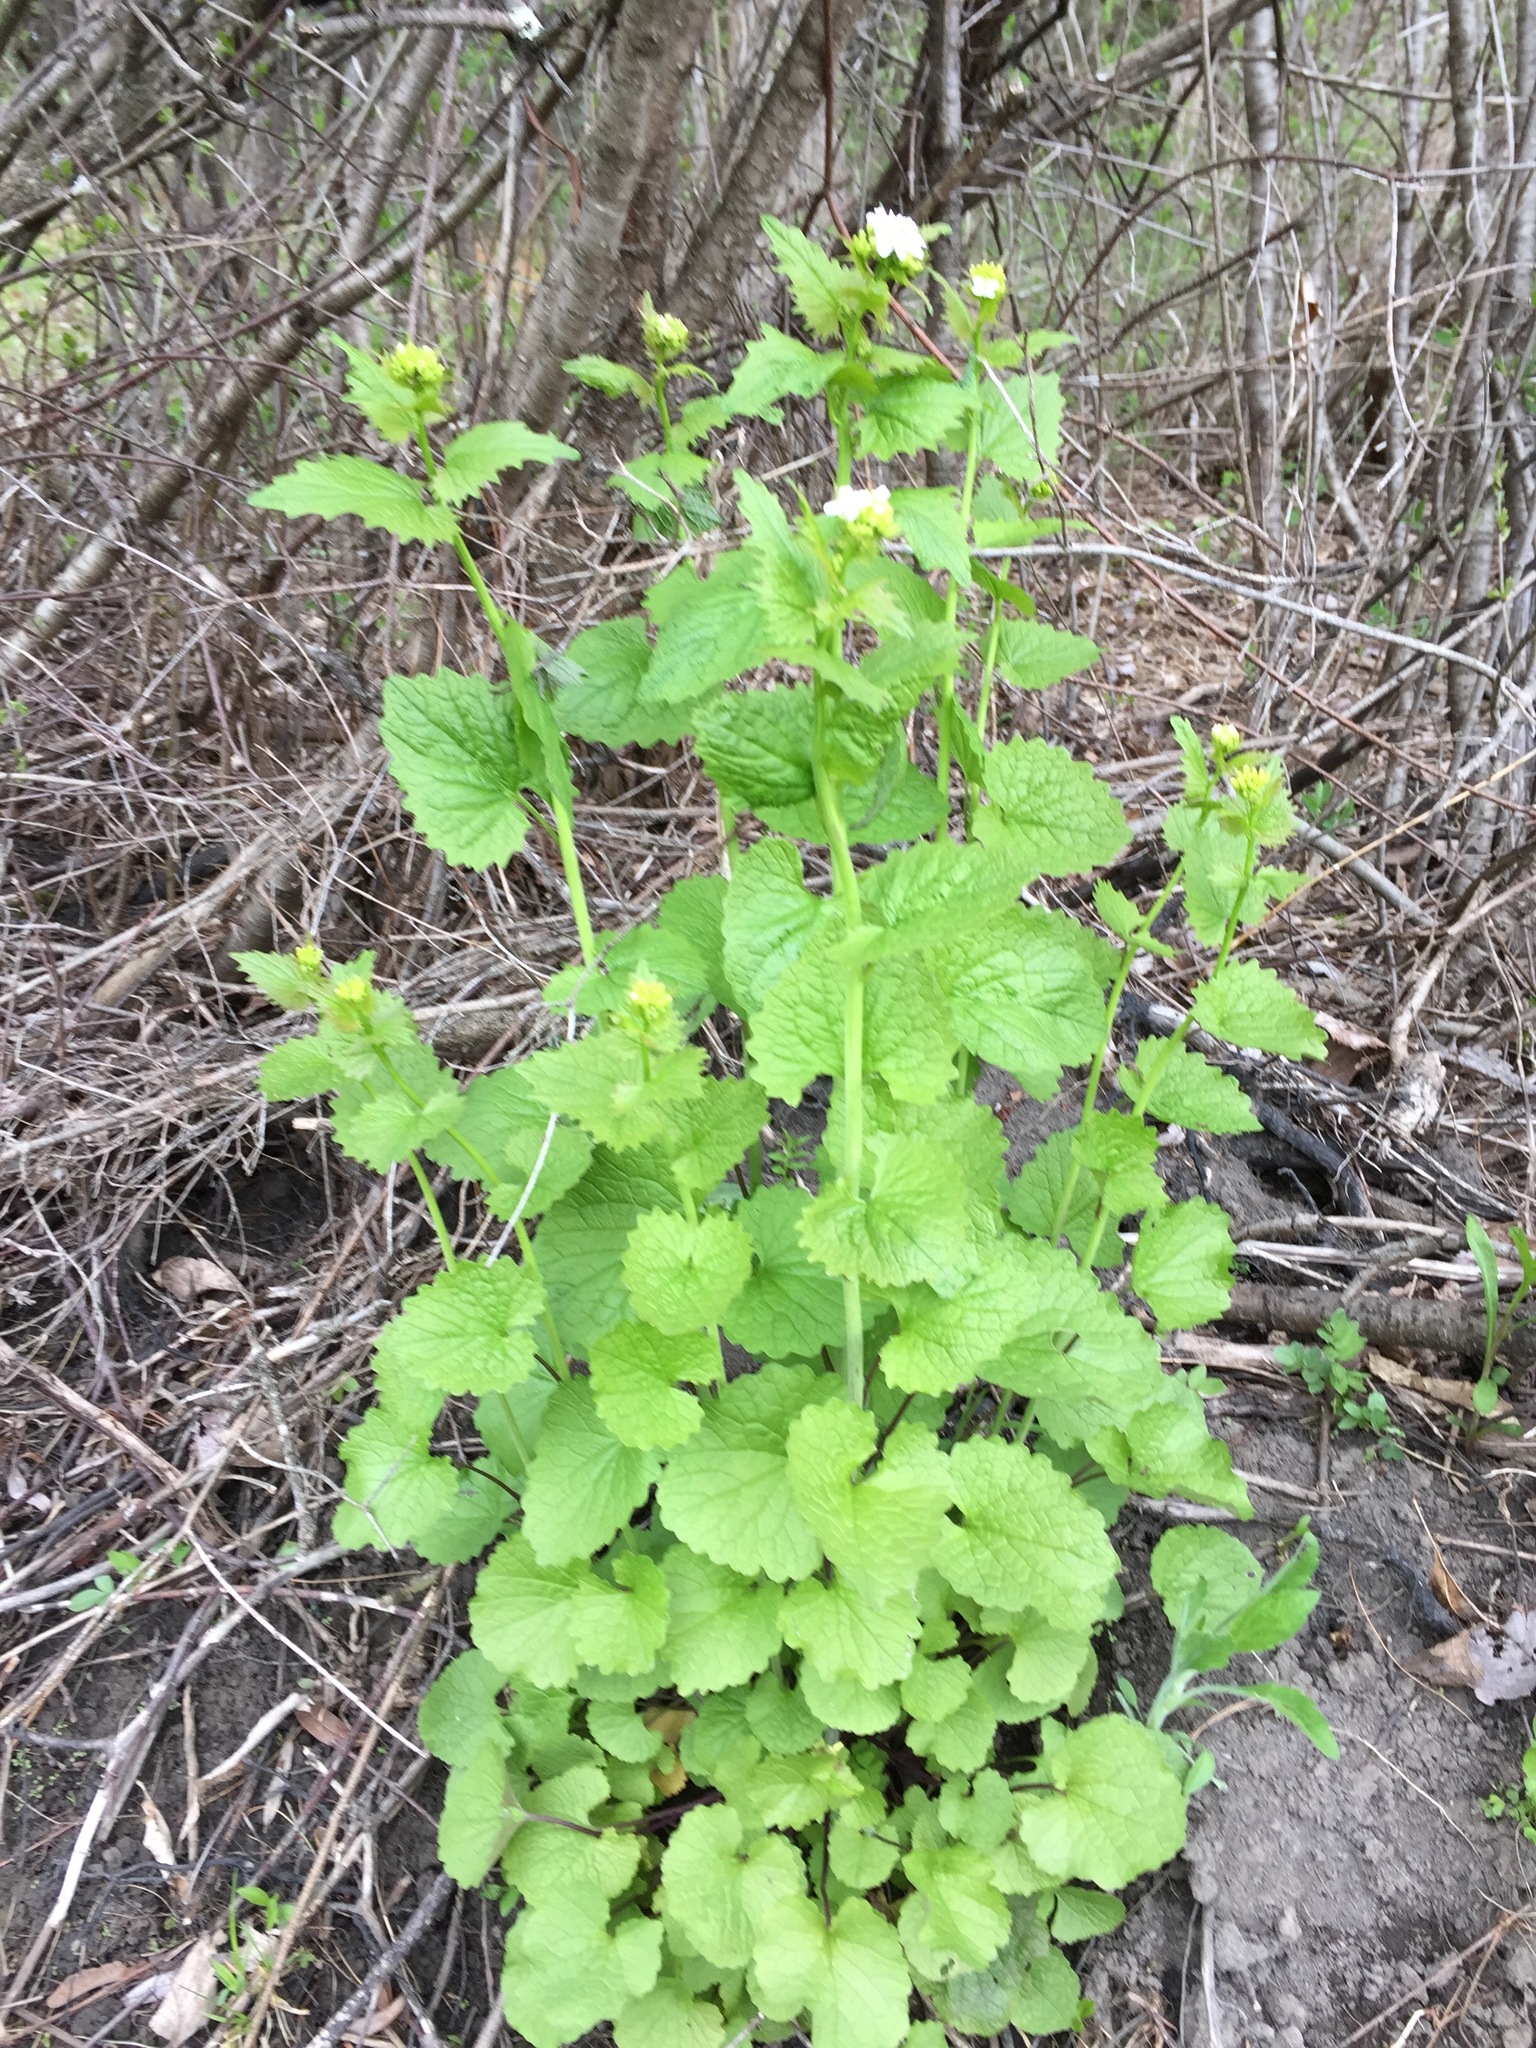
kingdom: Plantae
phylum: Tracheophyta
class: Magnoliopsida
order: Brassicales
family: Brassicaceae
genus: Alliaria
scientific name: Alliaria petiolata
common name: Garlic mustard
